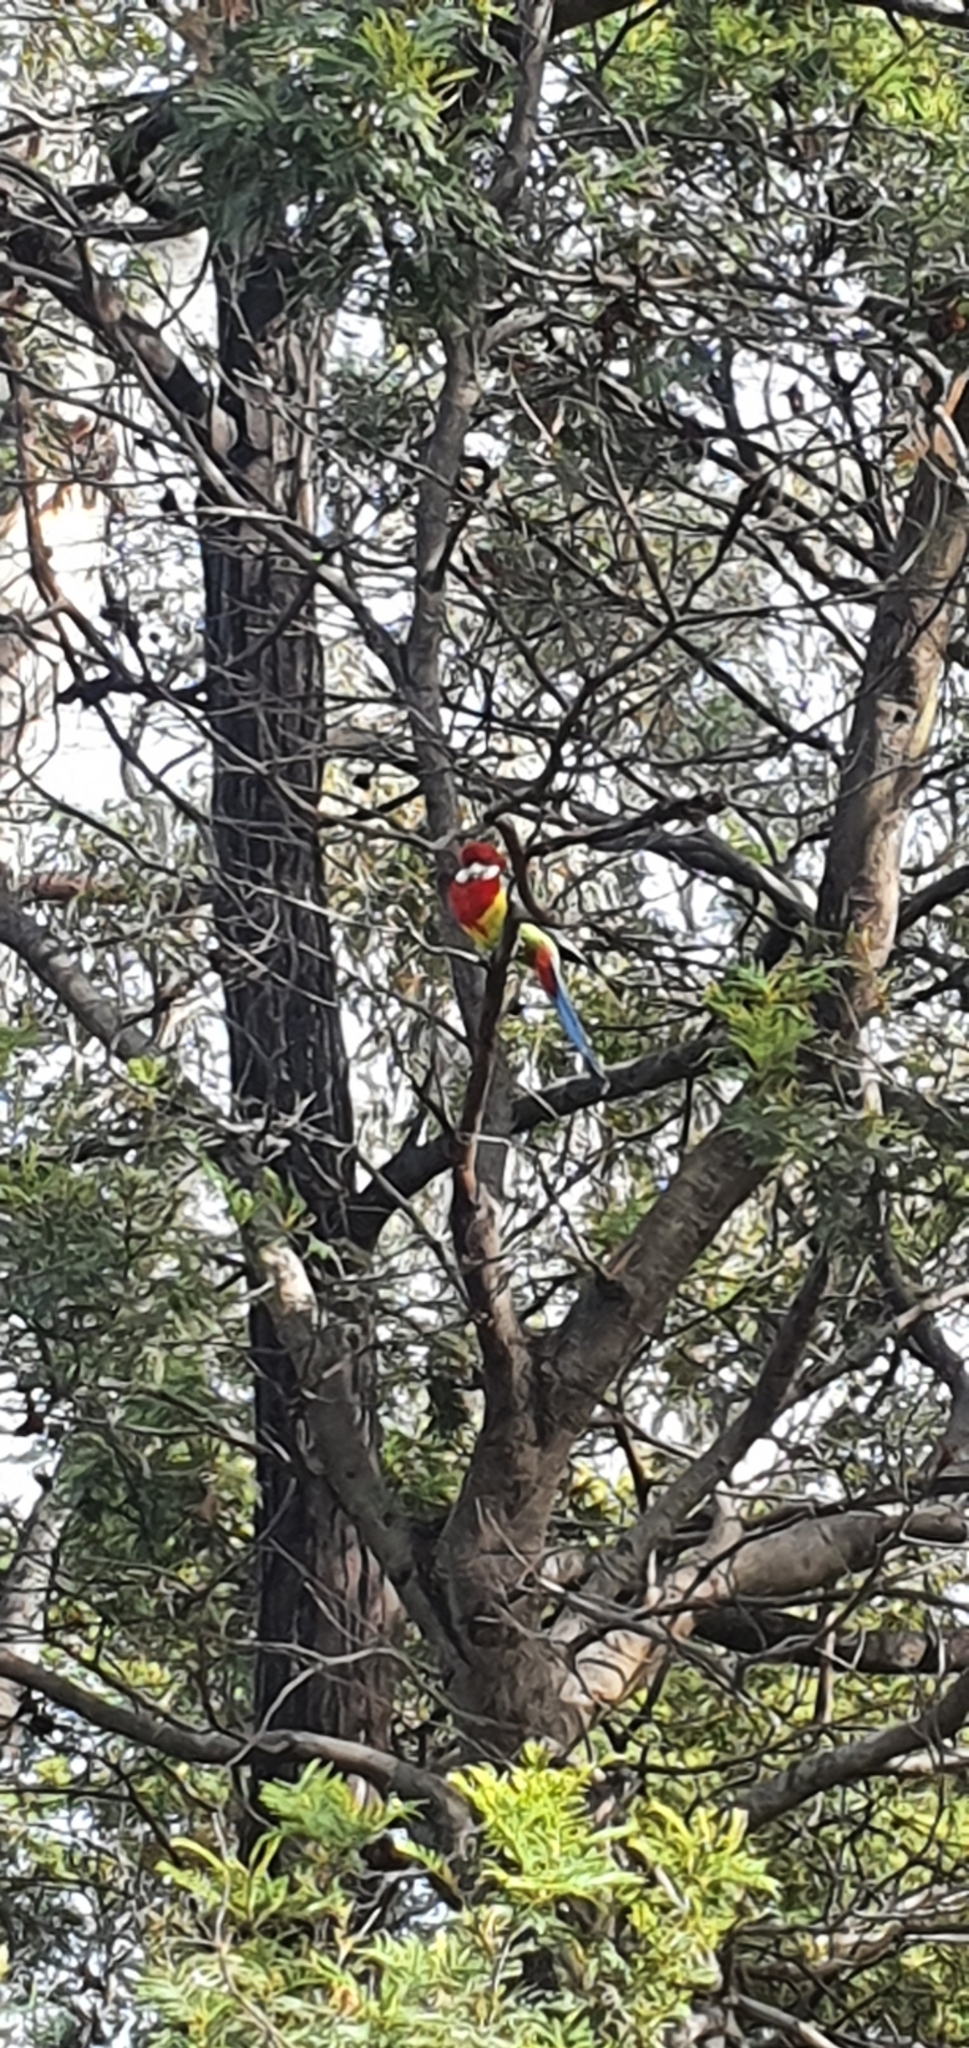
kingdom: Animalia
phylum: Chordata
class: Aves
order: Psittaciformes
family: Psittacidae
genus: Platycercus
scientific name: Platycercus eximius
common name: Eastern rosella
